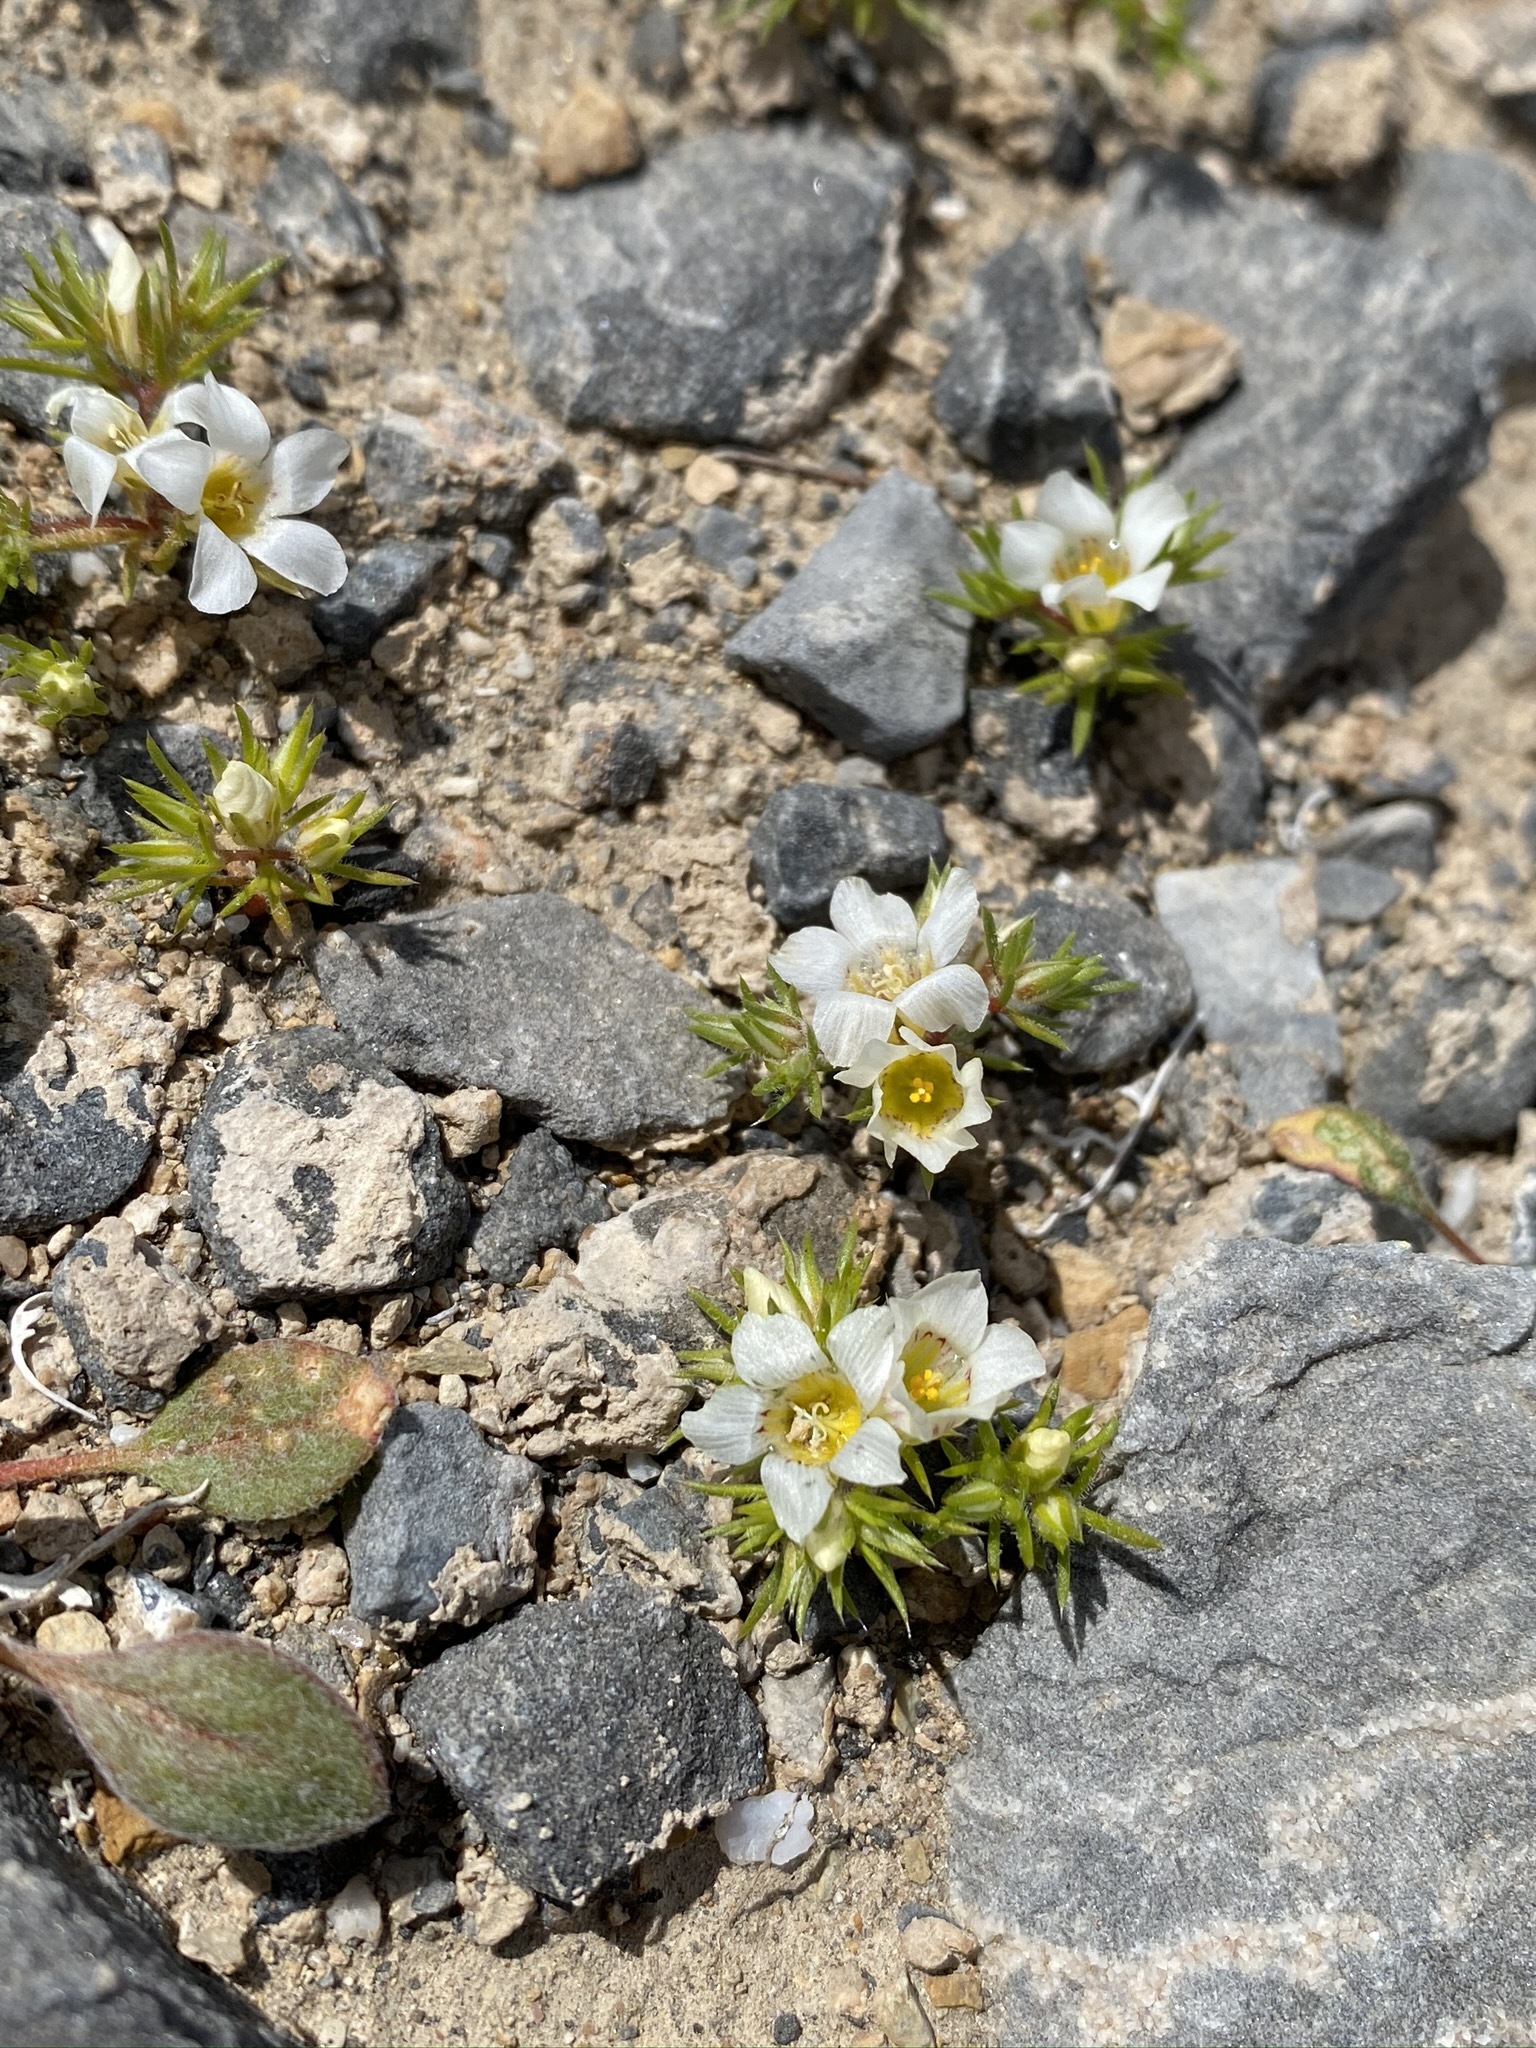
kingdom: Plantae
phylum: Tracheophyta
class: Magnoliopsida
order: Ericales
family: Polemoniaceae
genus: Linanthus
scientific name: Linanthus demissus
